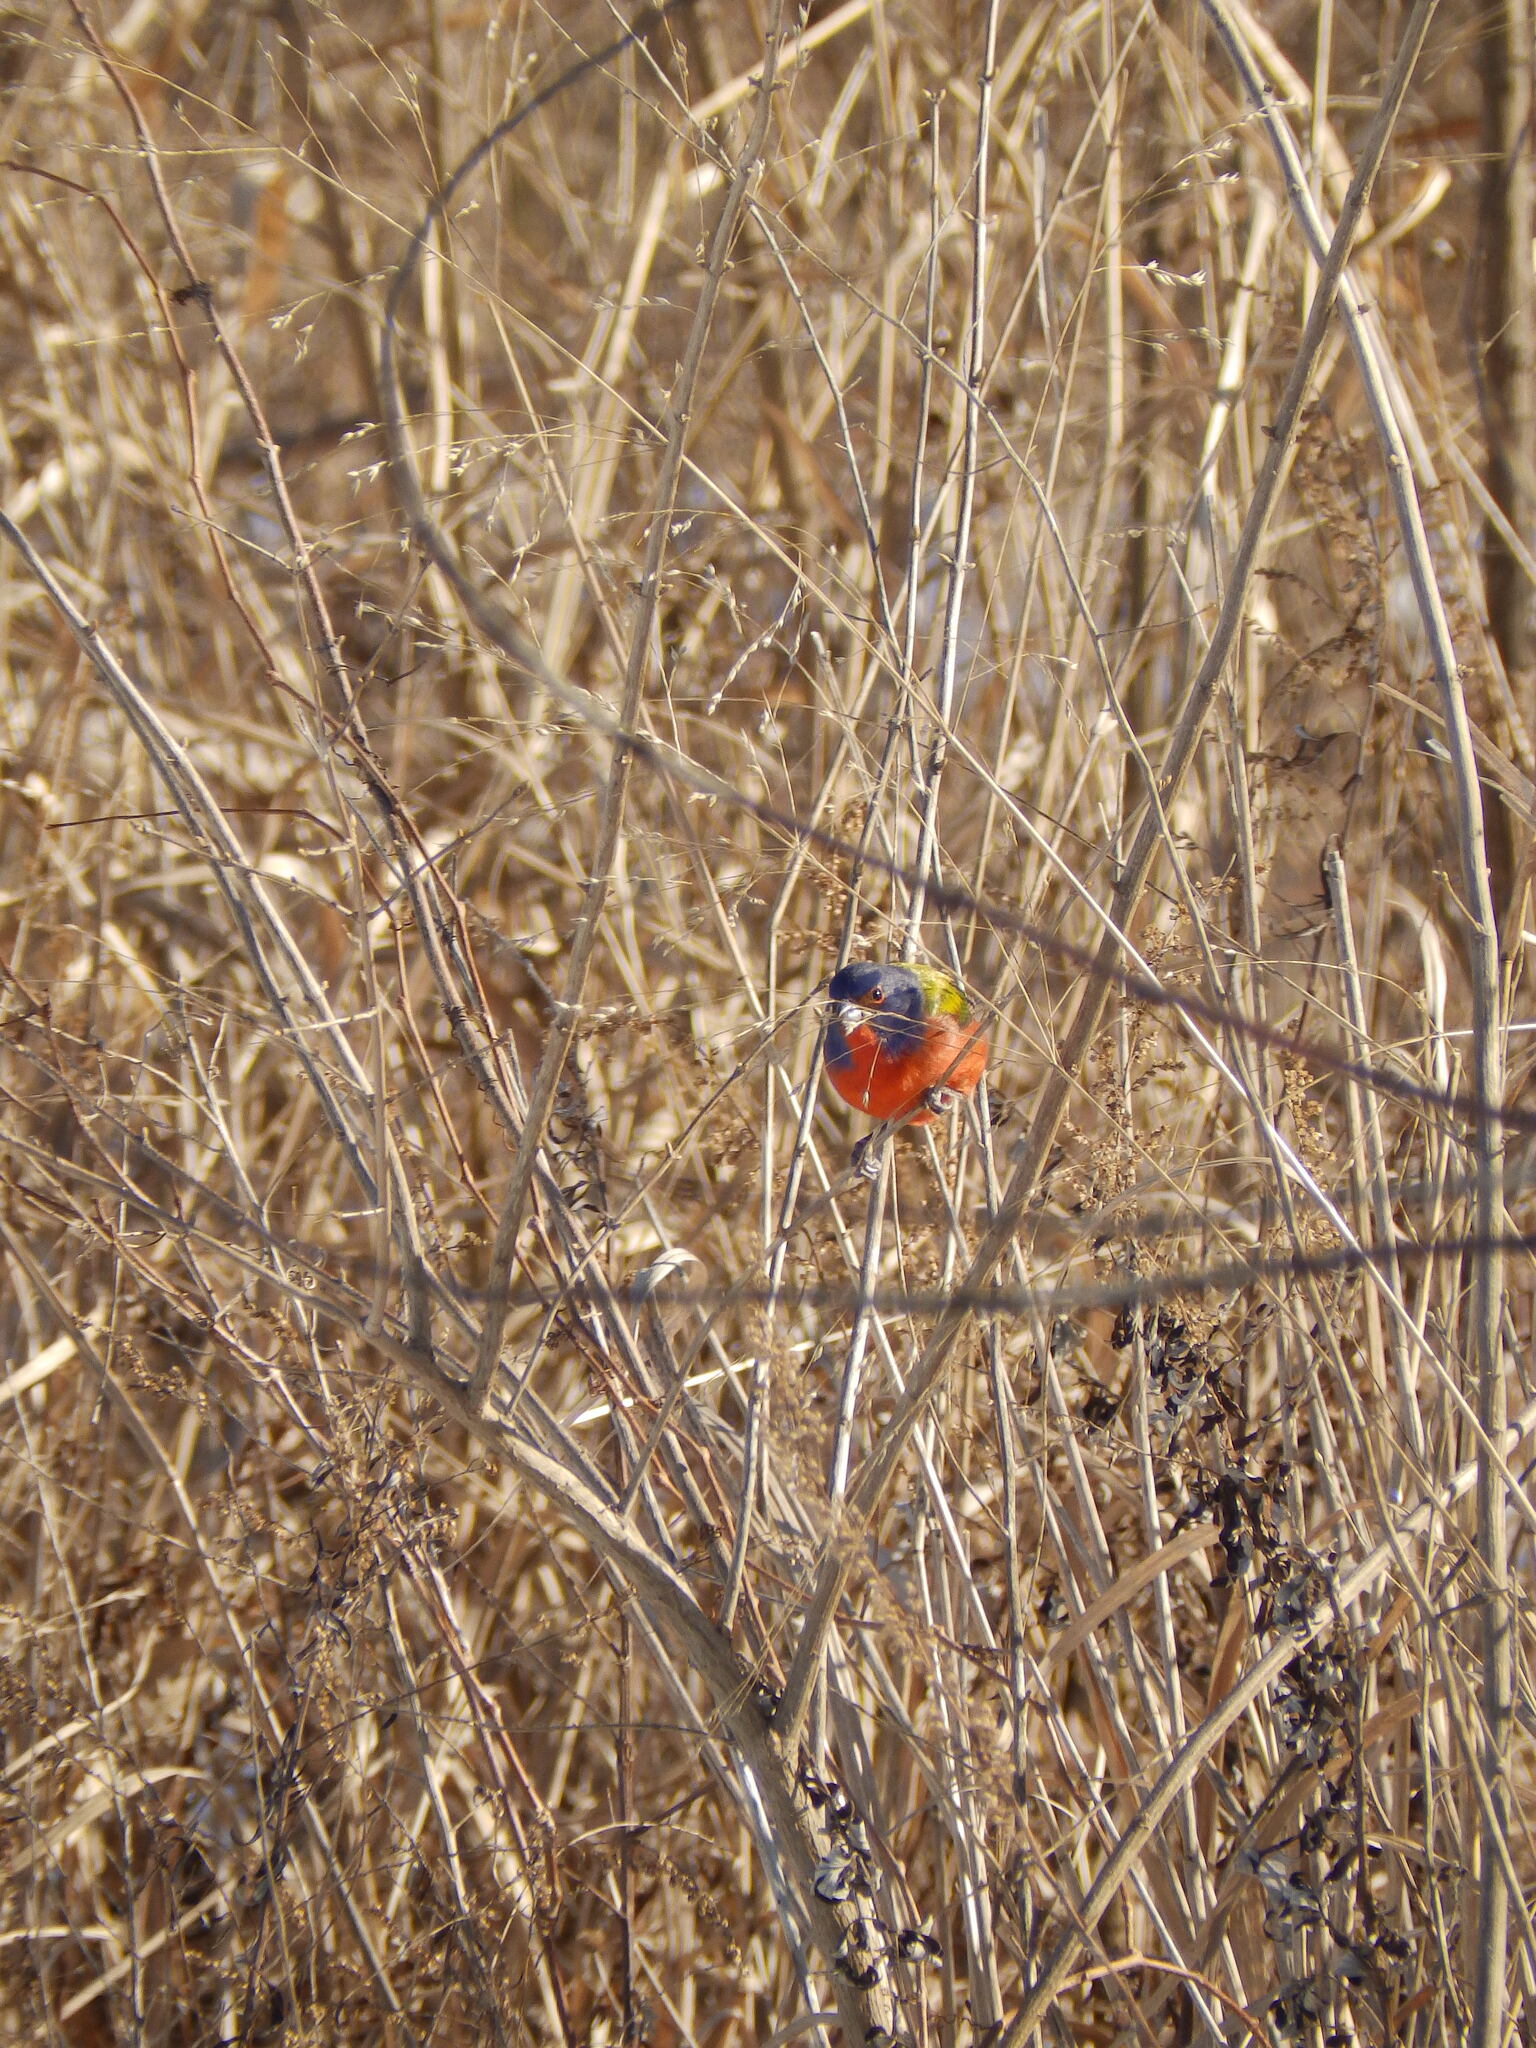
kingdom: Animalia
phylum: Chordata
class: Aves
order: Passeriformes
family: Cardinalidae
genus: Passerina
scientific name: Passerina ciris
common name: Painted bunting
